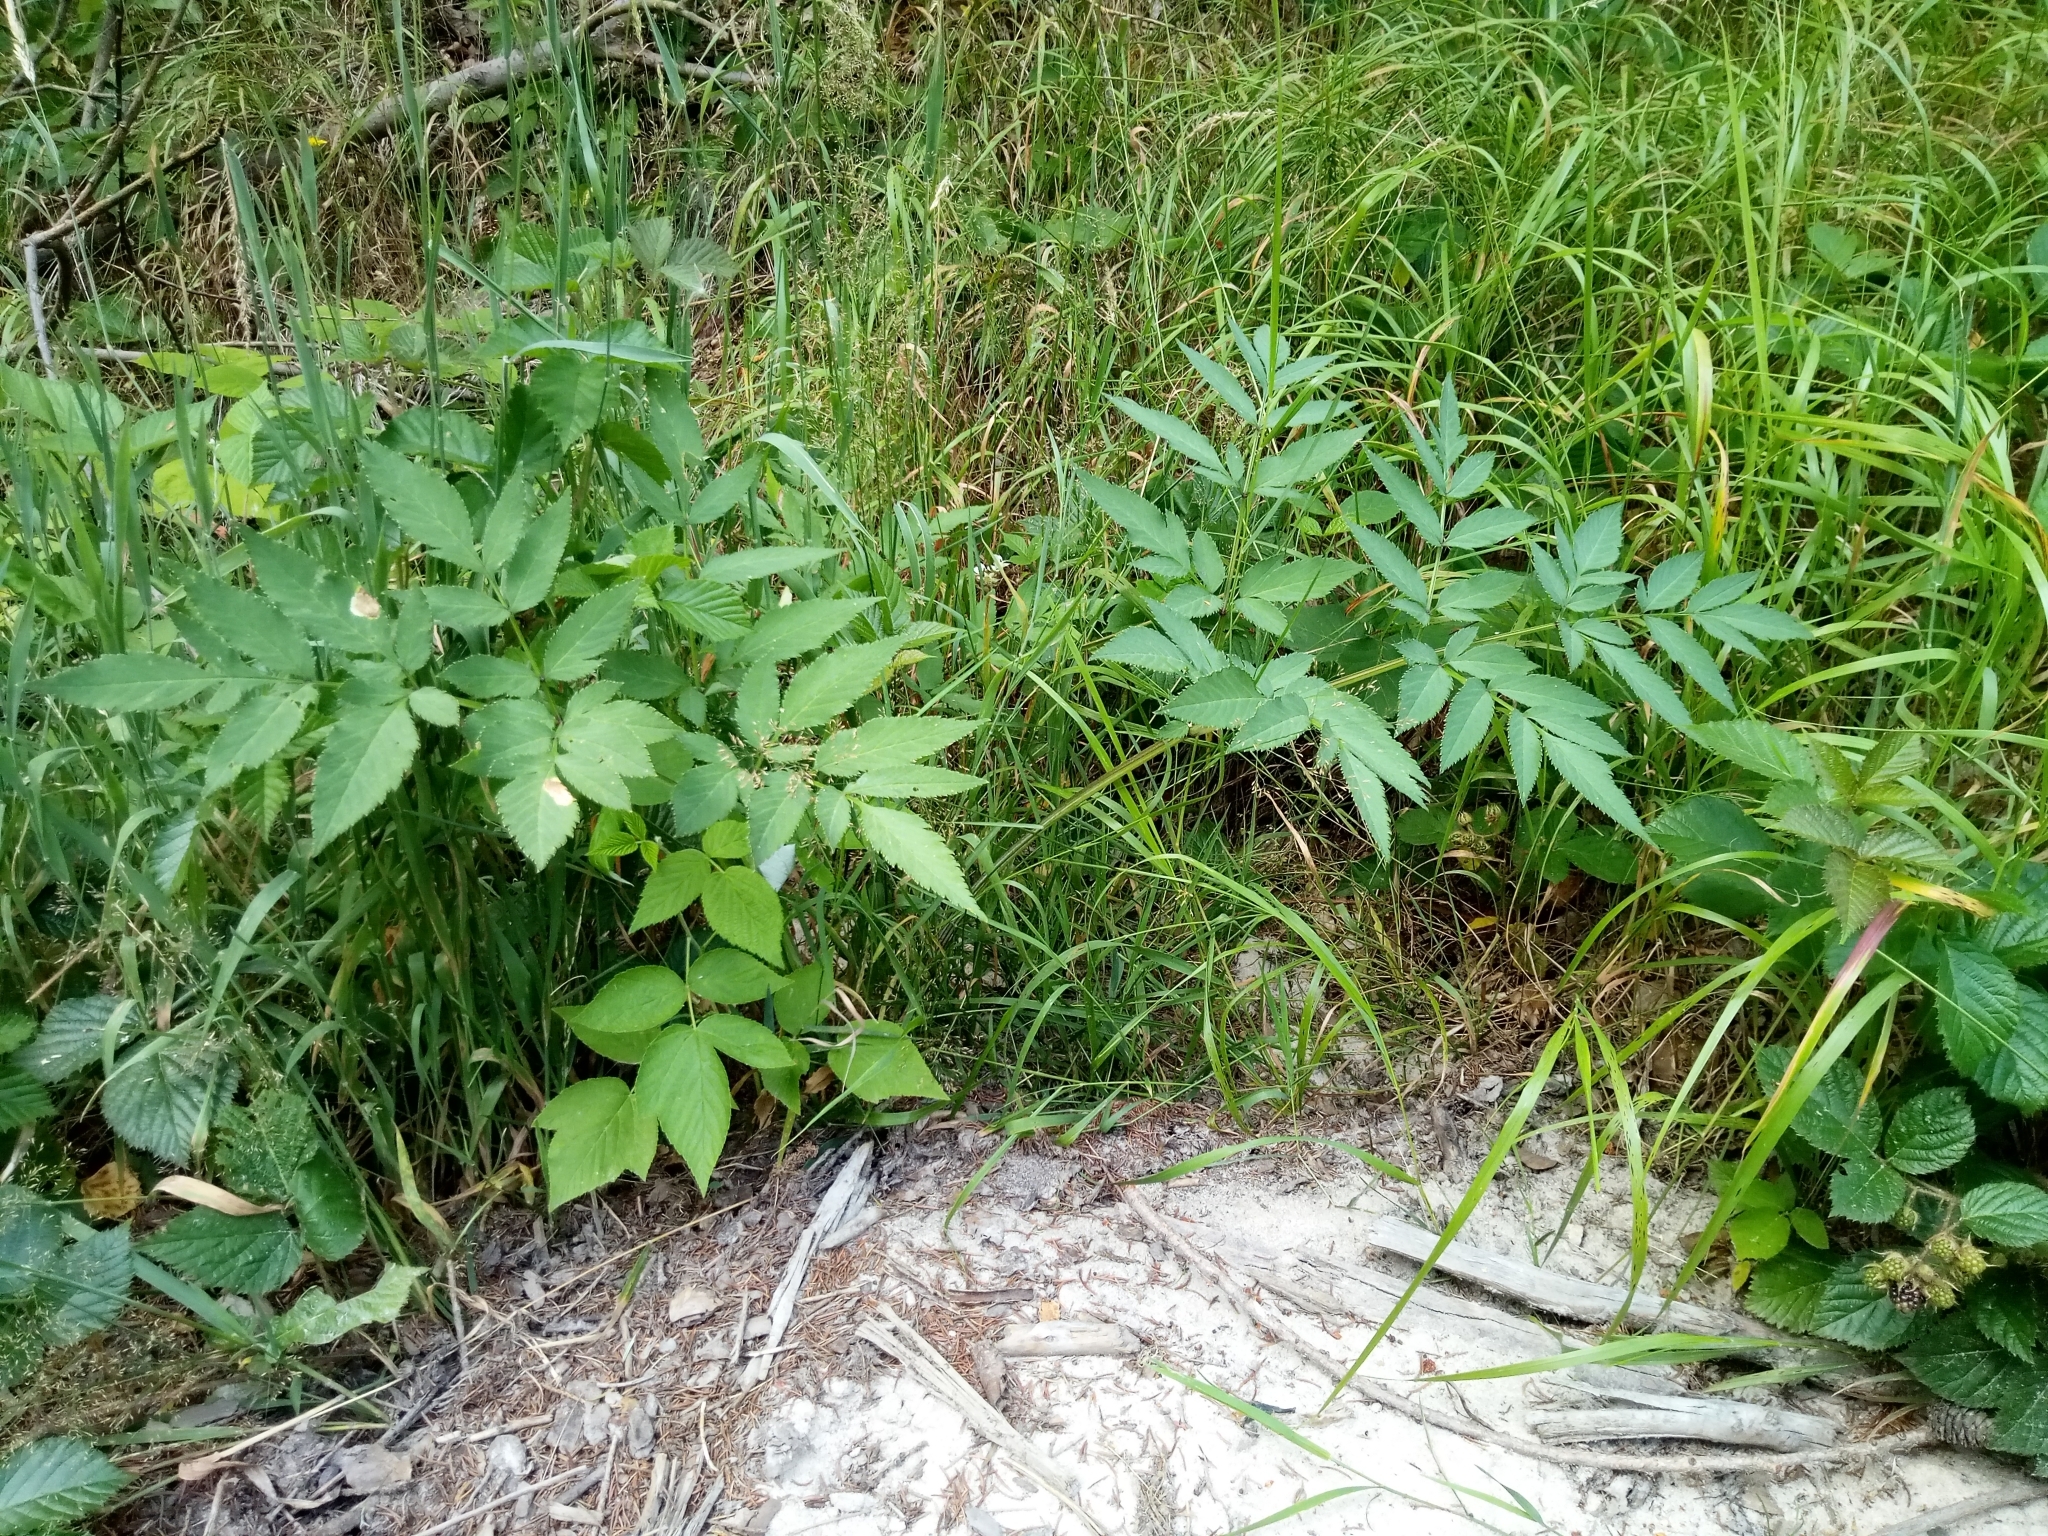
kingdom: Plantae
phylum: Tracheophyta
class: Magnoliopsida
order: Apiales
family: Apiaceae
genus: Angelica
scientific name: Angelica sylvestris
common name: Wild angelica
